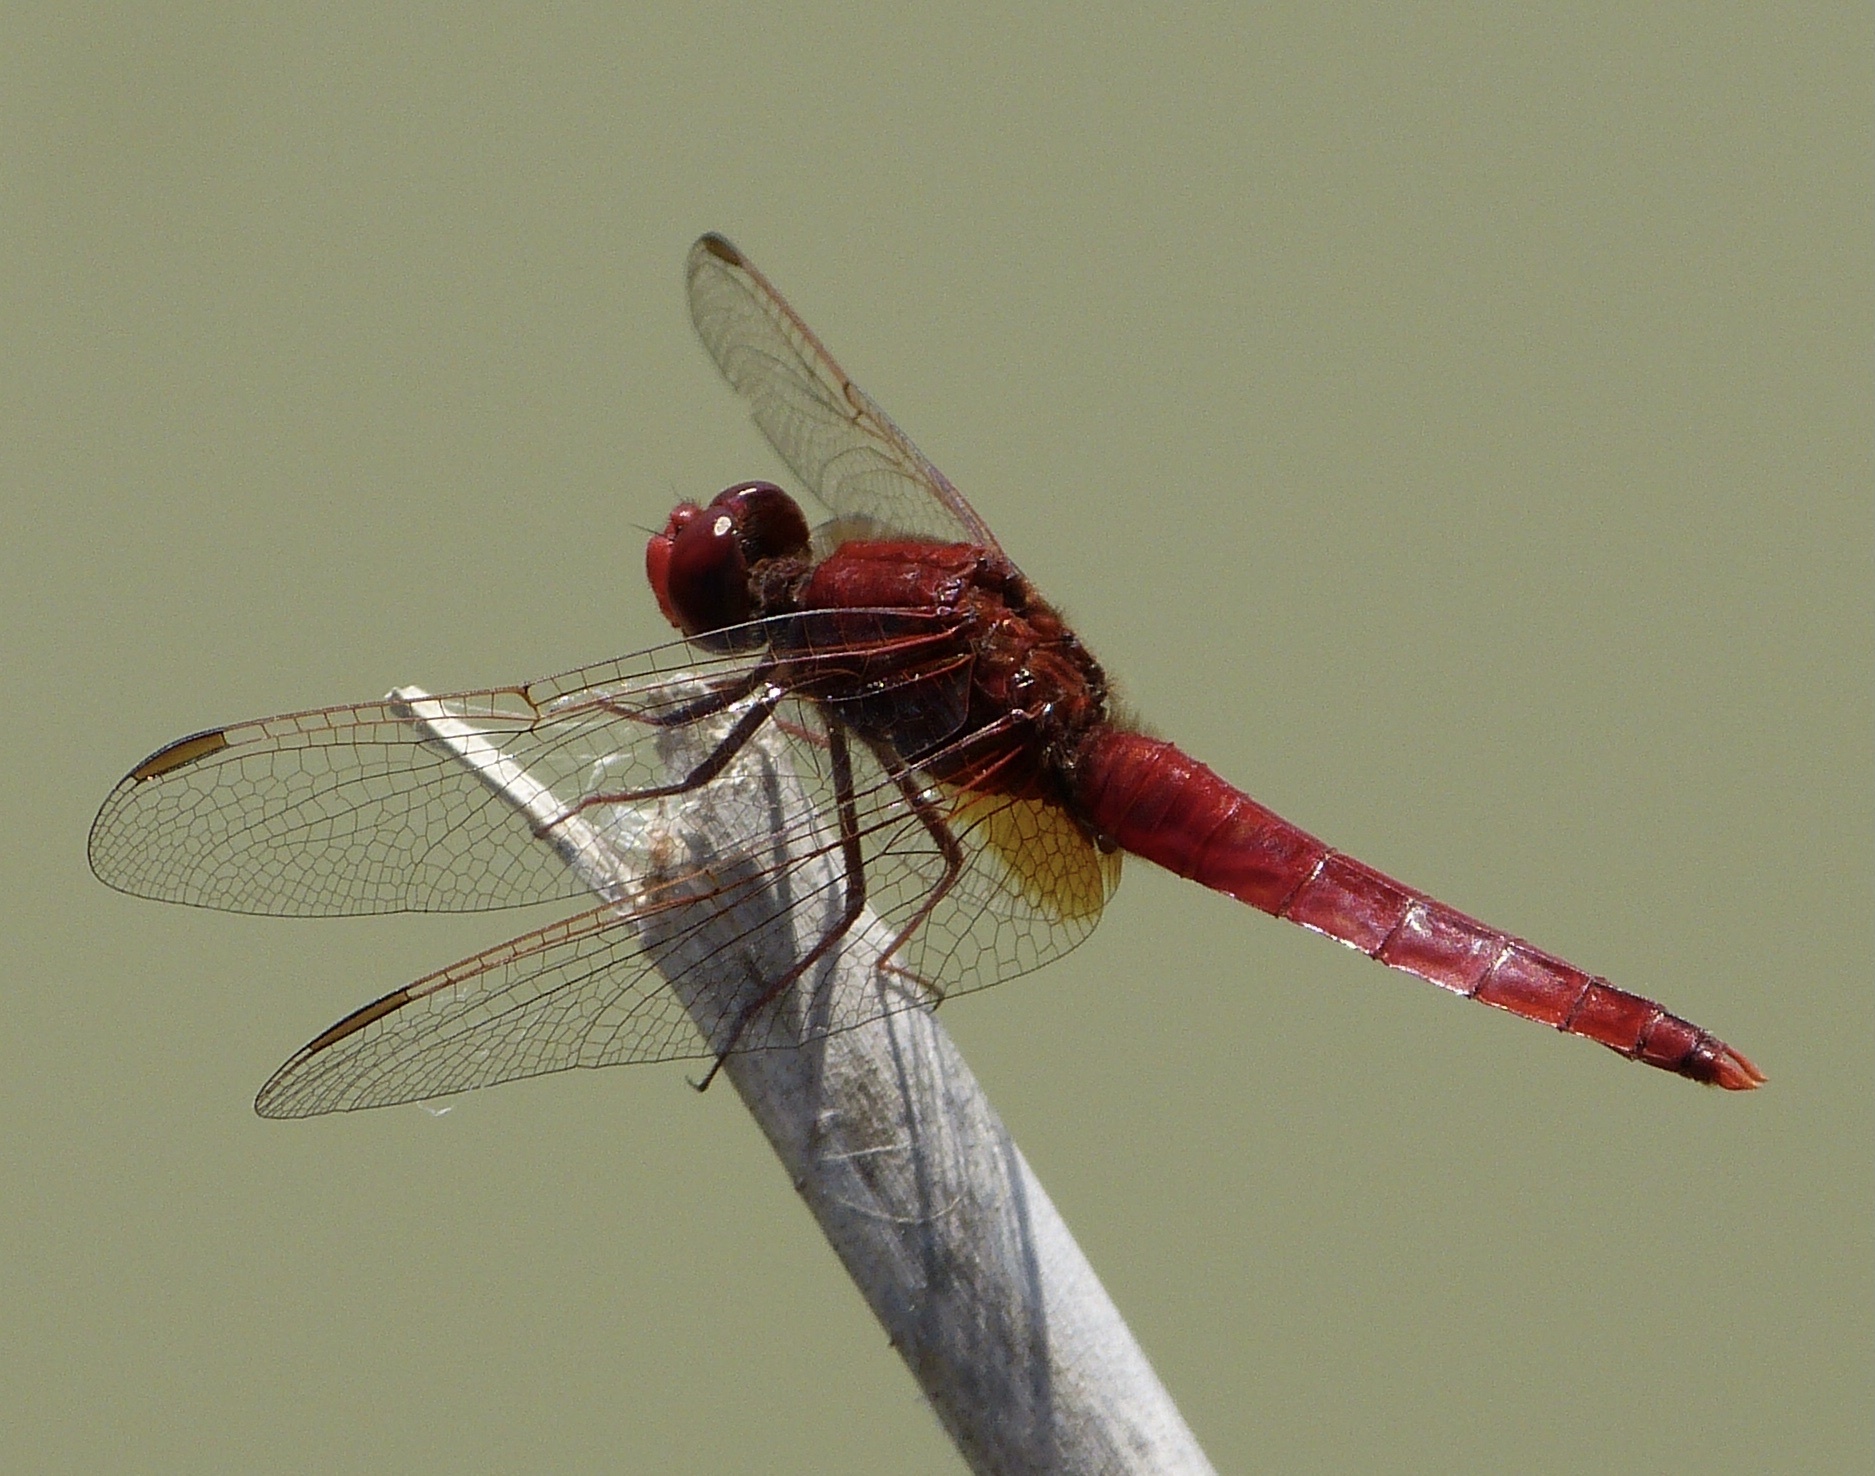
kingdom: Animalia
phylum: Arthropoda
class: Insecta
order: Odonata
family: Libellulidae
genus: Crocothemis
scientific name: Crocothemis erythraea
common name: Scarlet dragonfly
